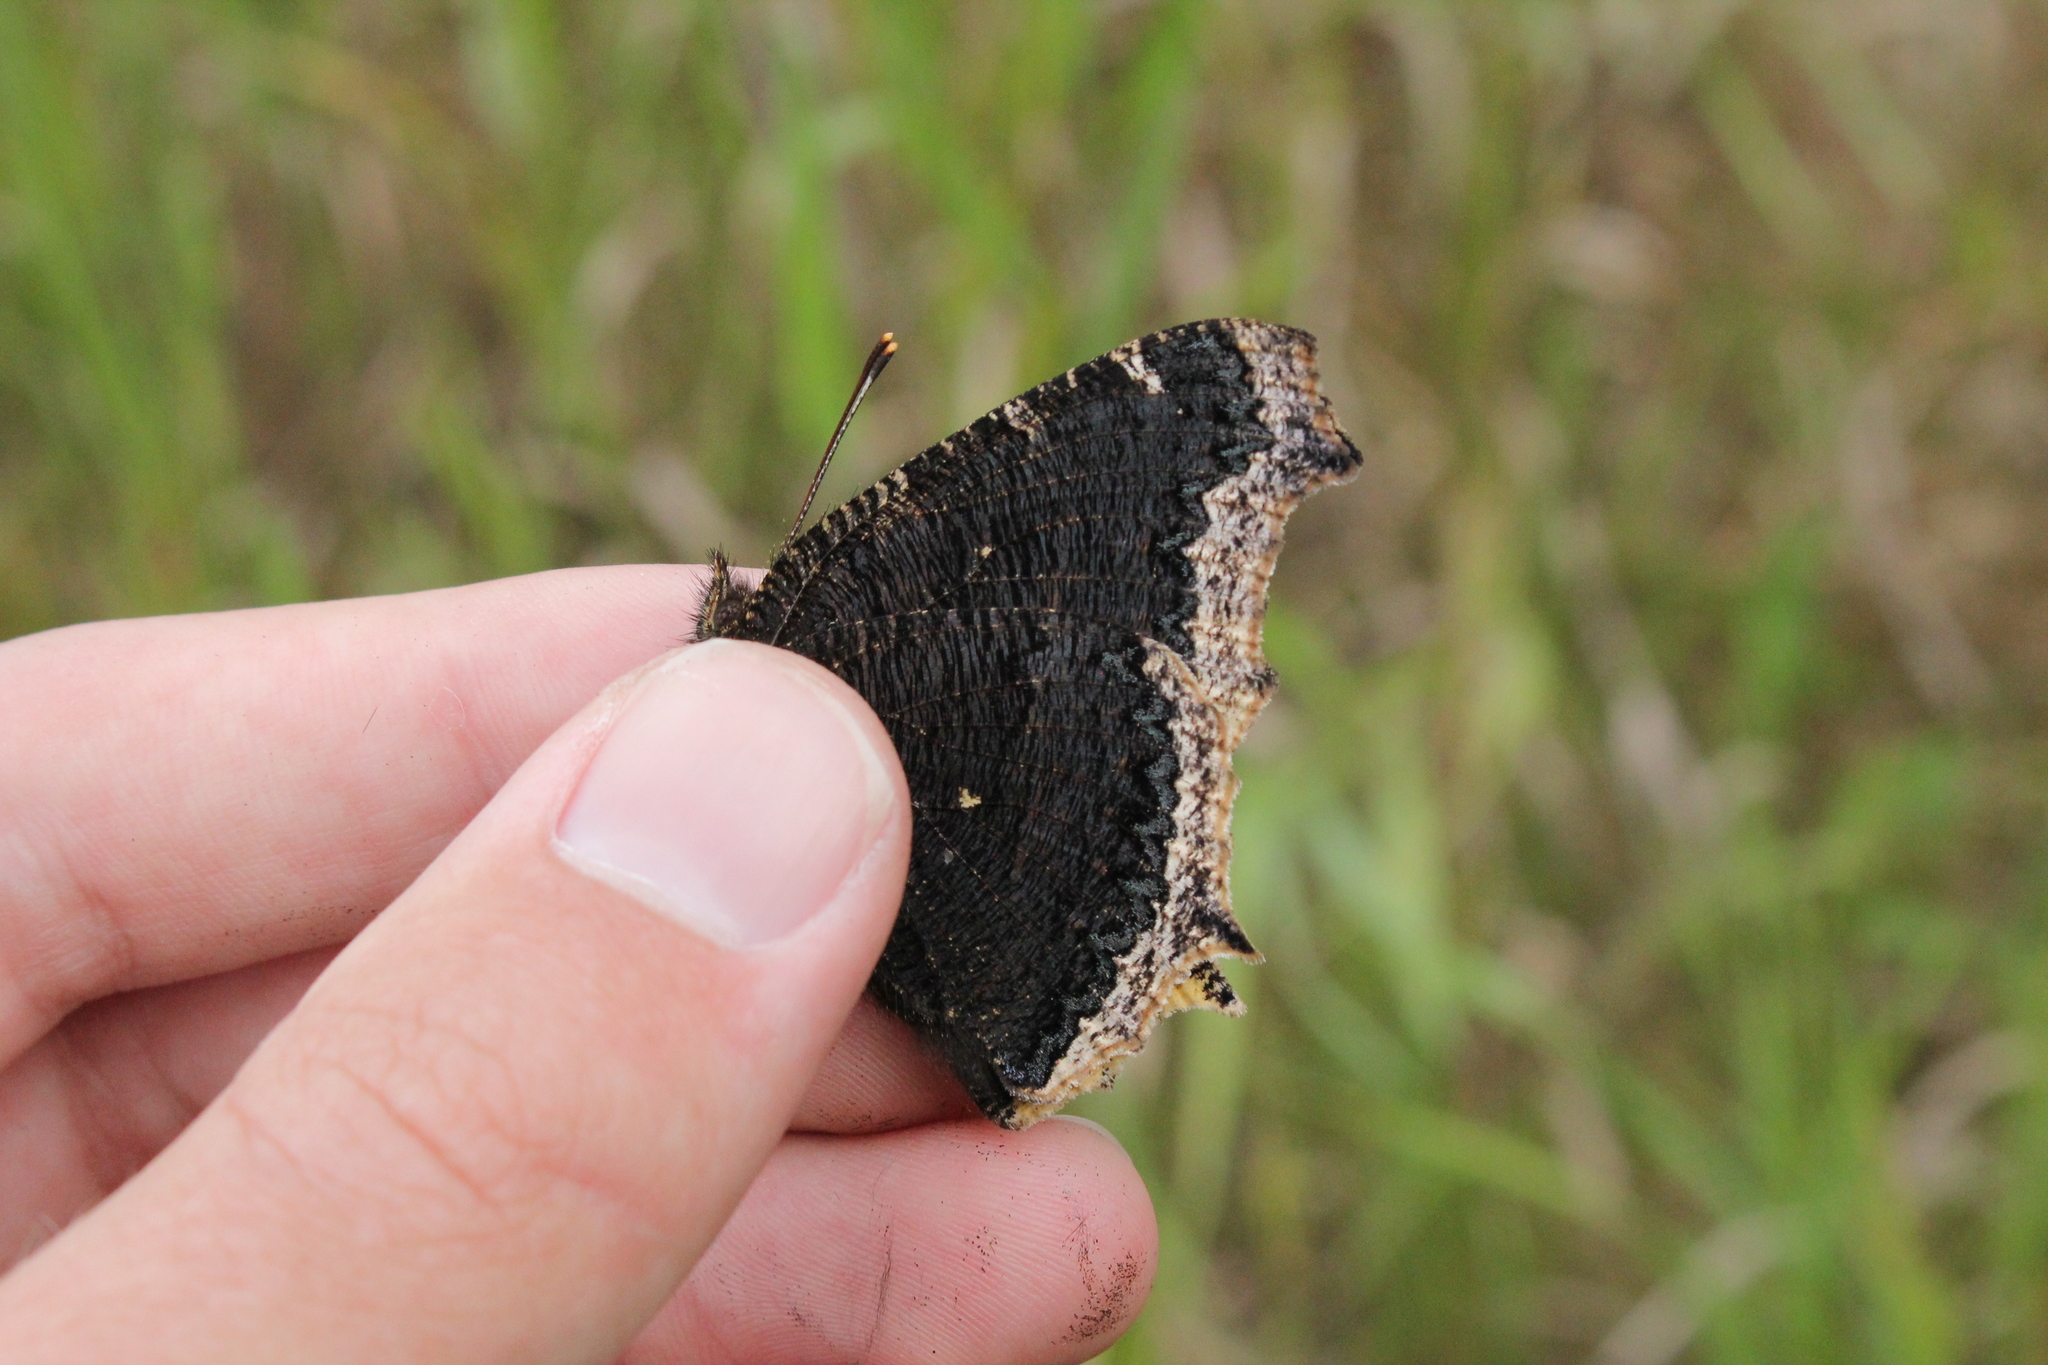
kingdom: Animalia
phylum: Arthropoda
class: Insecta
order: Lepidoptera
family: Nymphalidae
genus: Nymphalis
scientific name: Nymphalis antiopa
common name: Camberwell beauty
